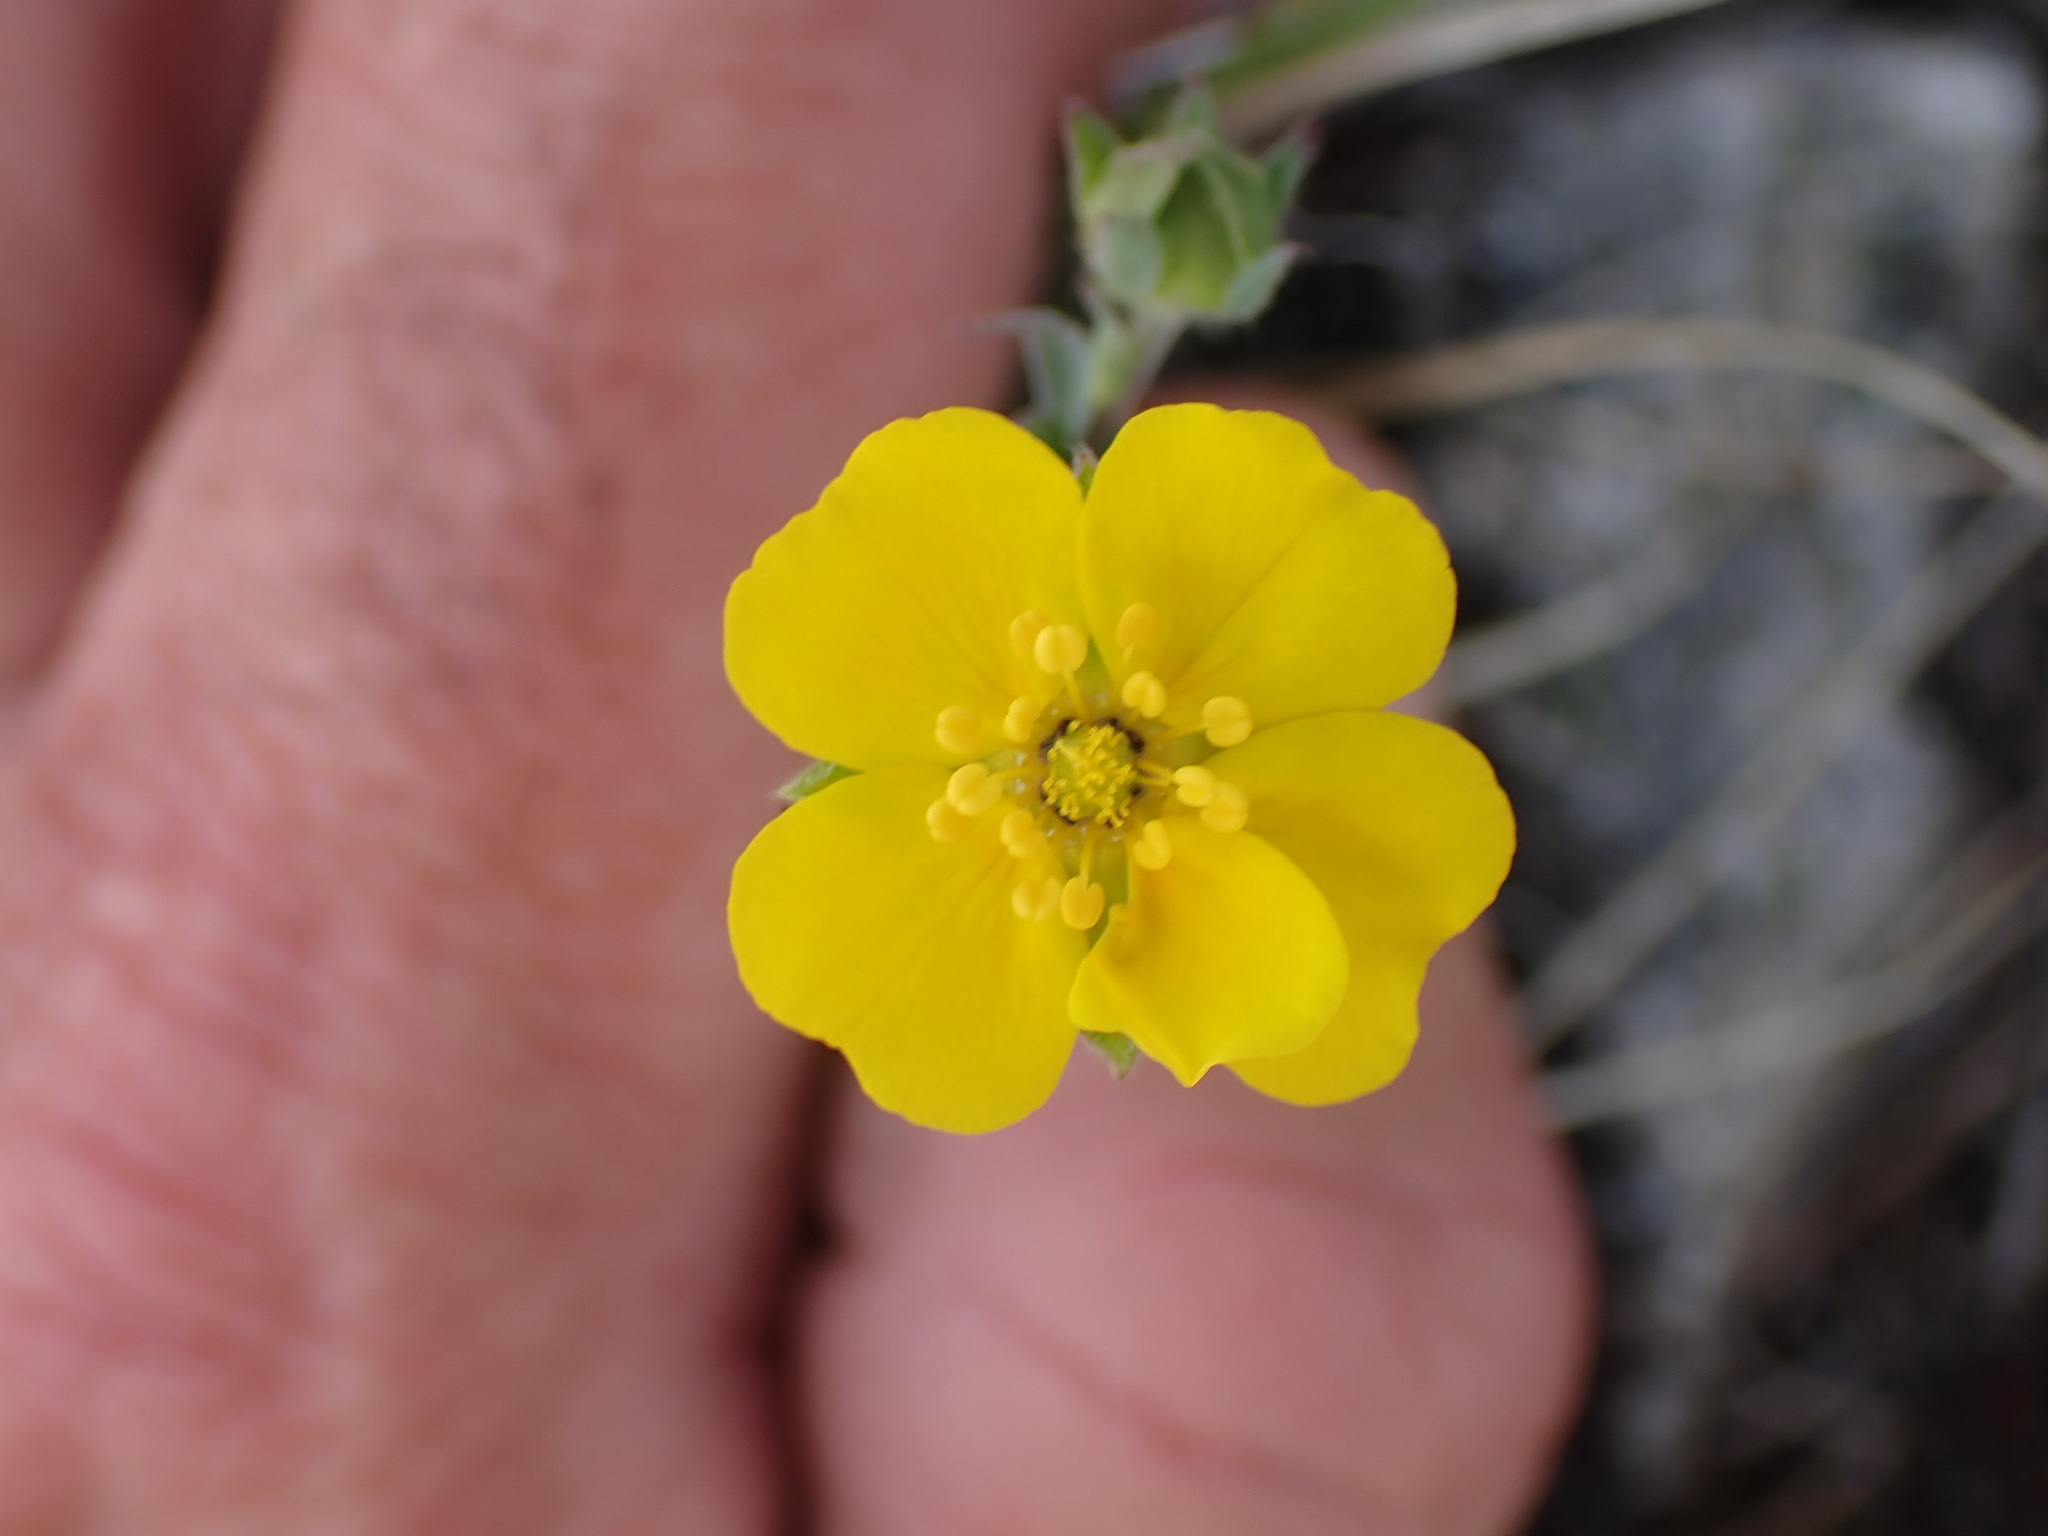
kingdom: Plantae
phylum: Tracheophyta
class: Magnoliopsida
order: Rosales
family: Rosaceae
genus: Potentilla
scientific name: Potentilla glaucophylla
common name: Blue-leaved cinquefoil
